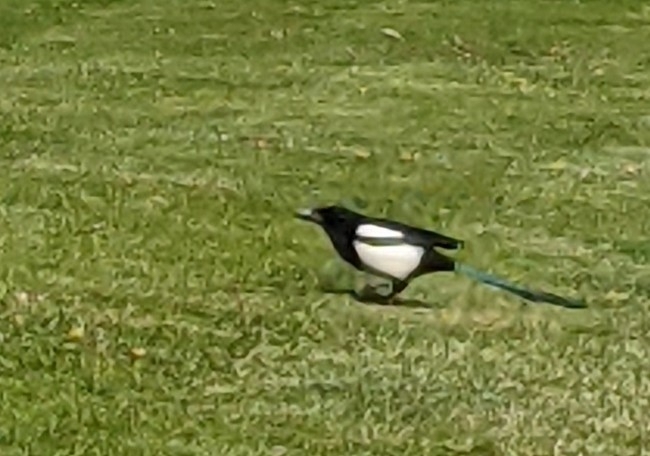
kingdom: Animalia
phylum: Chordata
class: Aves
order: Passeriformes
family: Corvidae
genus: Pica
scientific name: Pica pica
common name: Eurasian magpie
